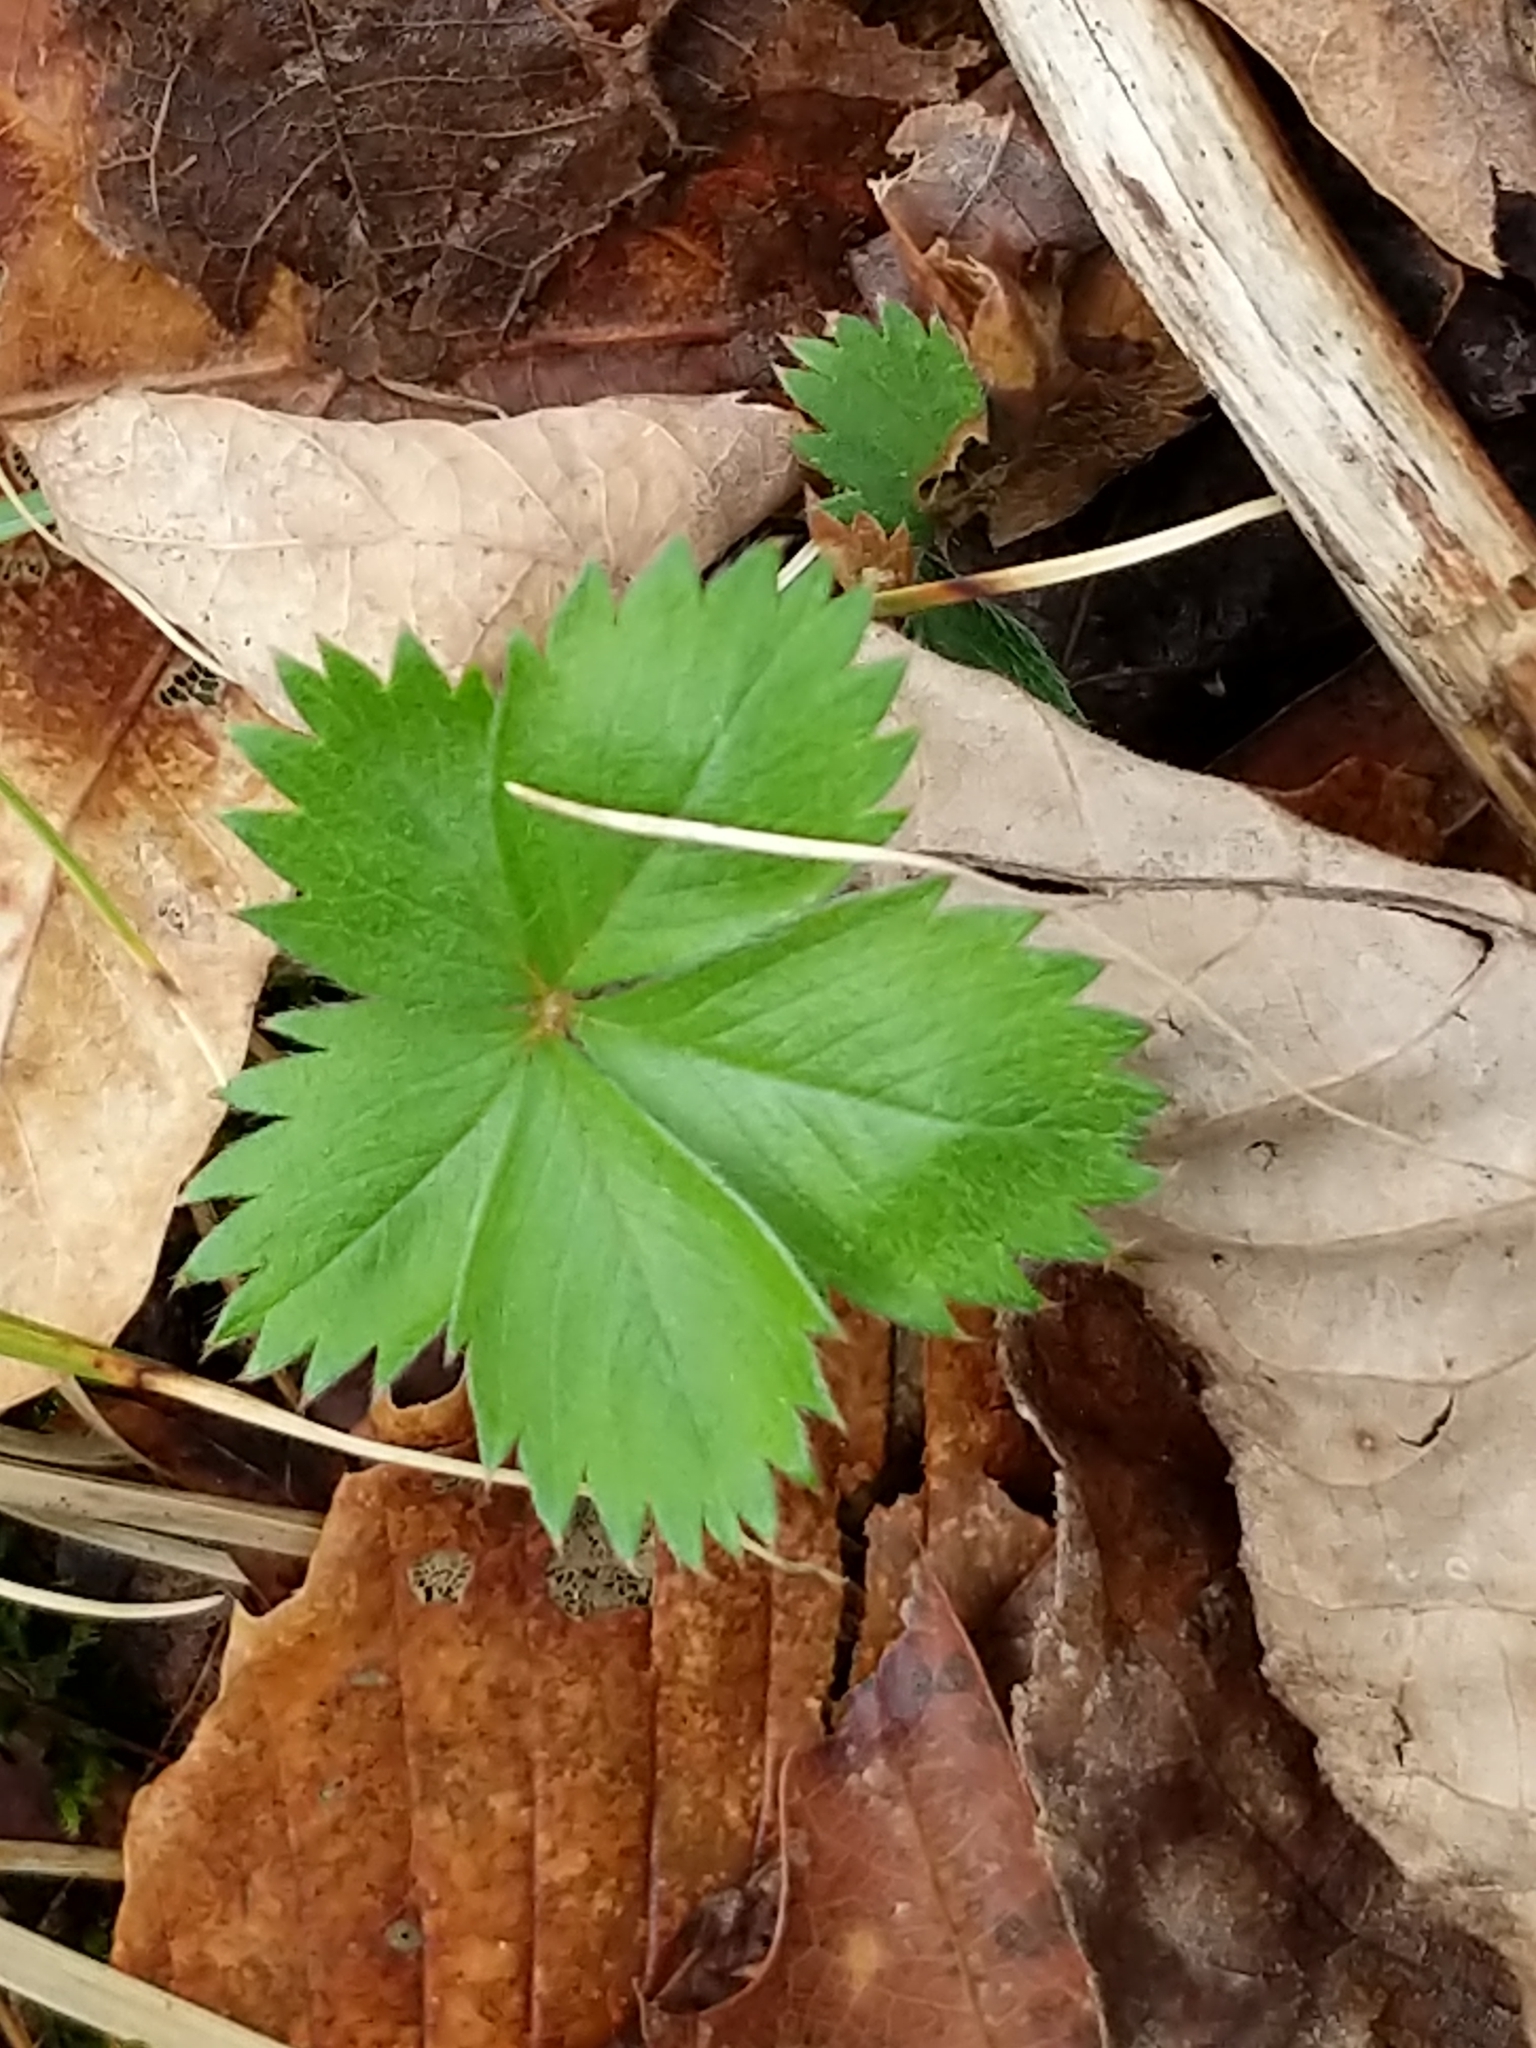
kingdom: Plantae
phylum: Tracheophyta
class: Magnoliopsida
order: Rosales
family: Rosaceae
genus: Potentilla
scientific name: Potentilla simplex
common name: Old field cinquefoil
